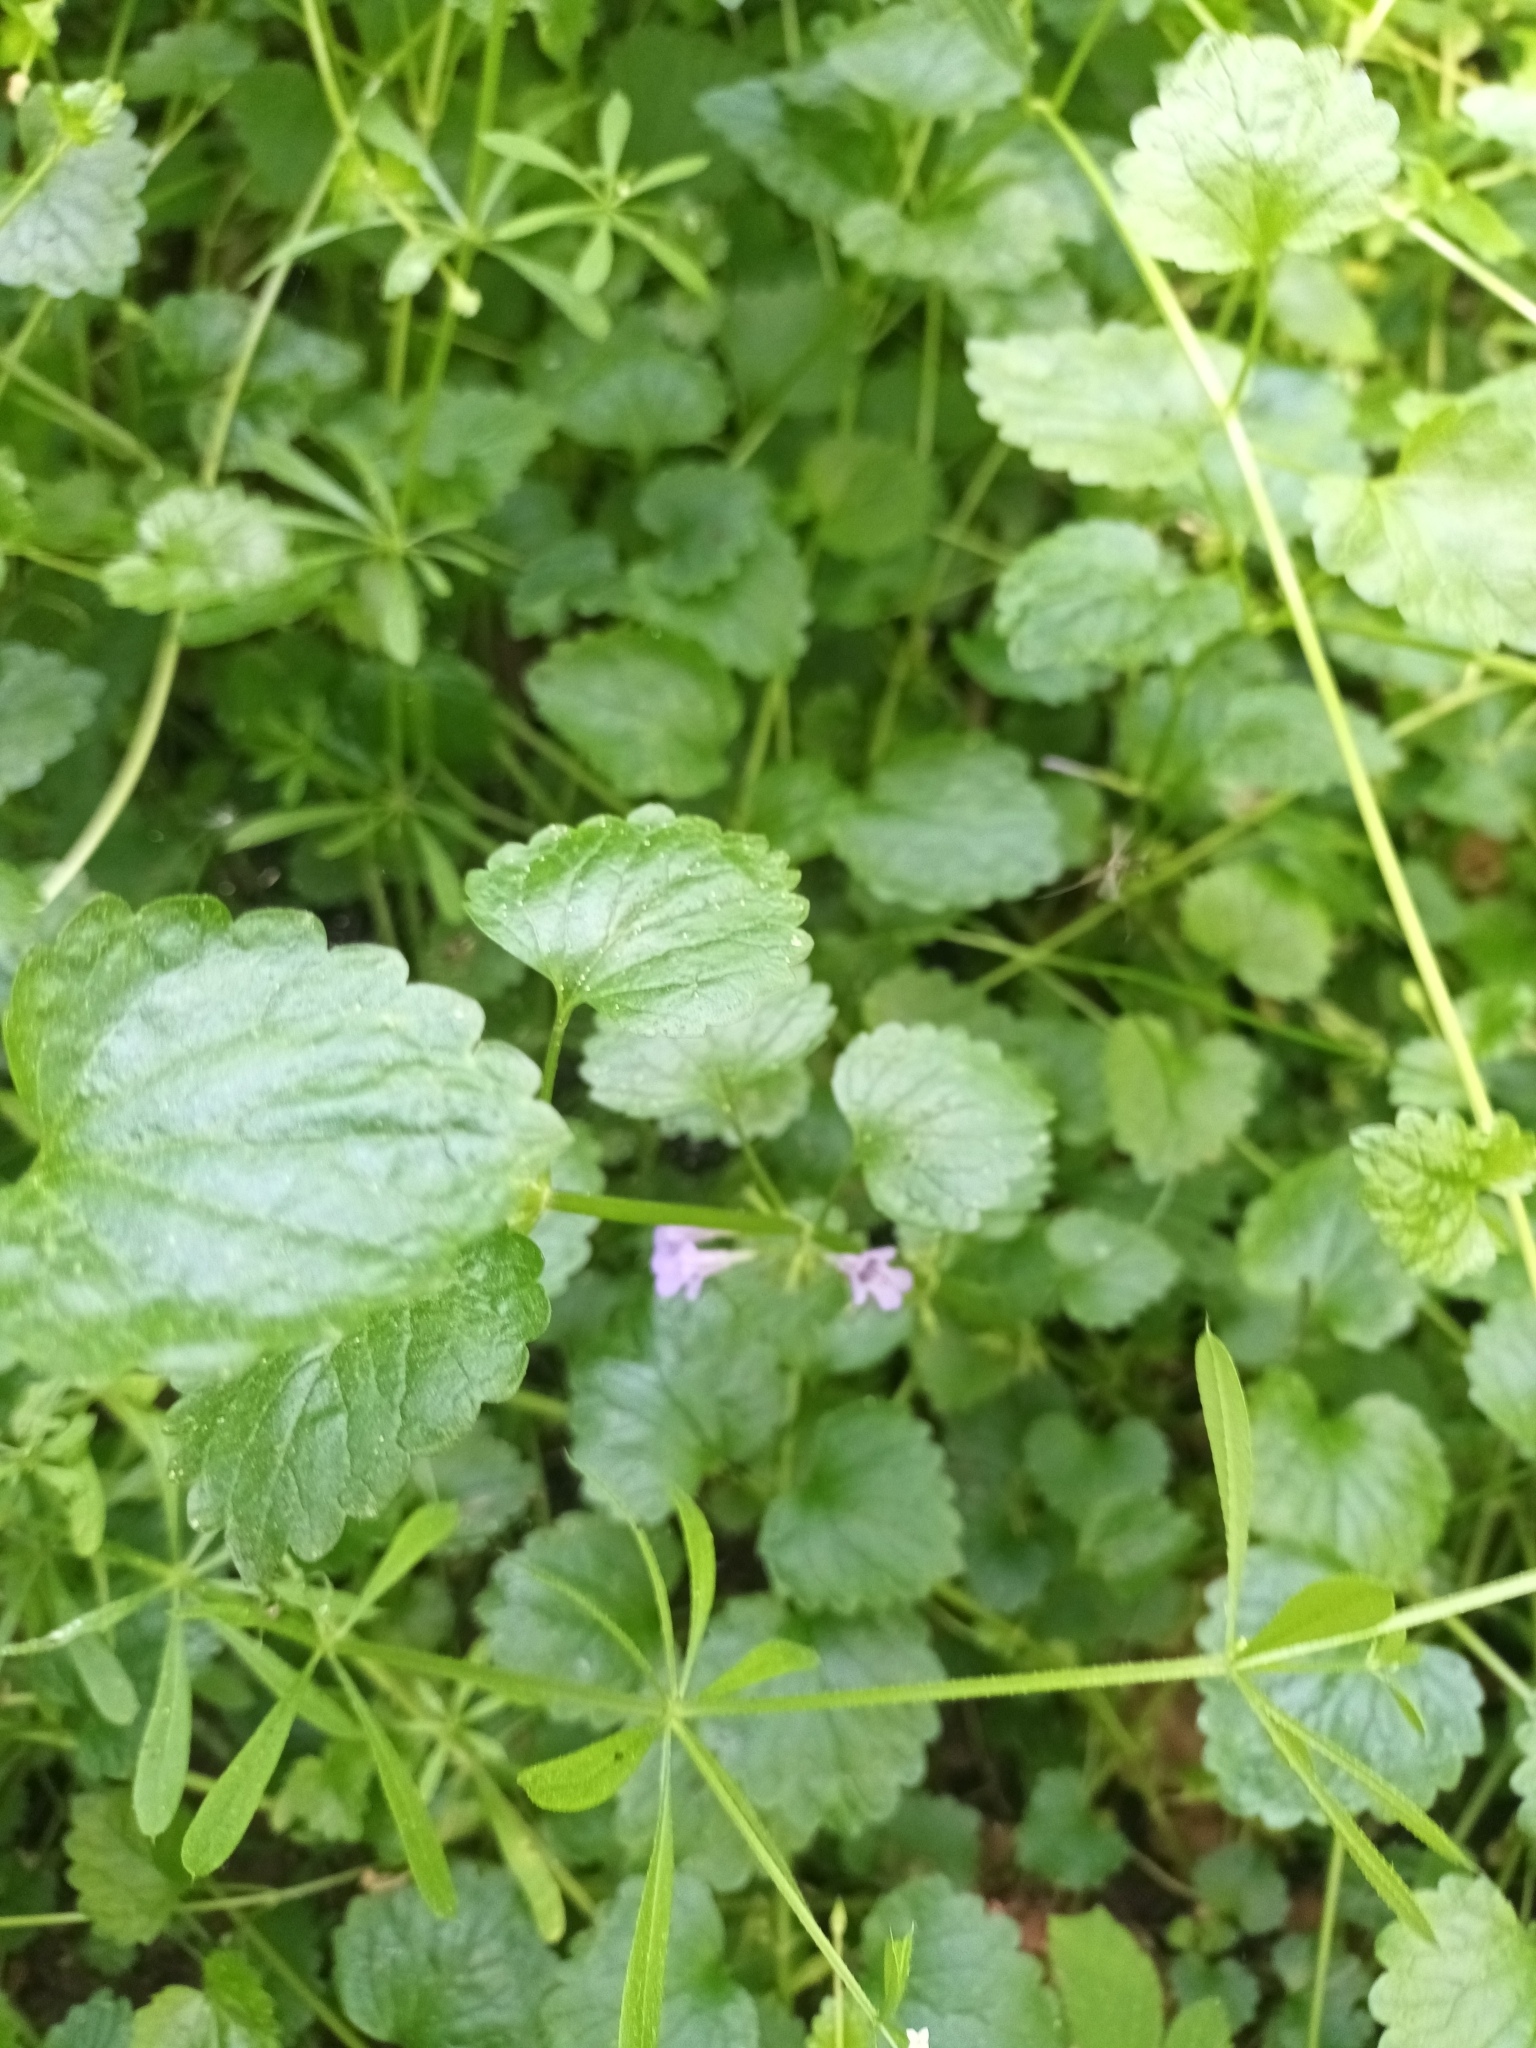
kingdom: Plantae
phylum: Tracheophyta
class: Magnoliopsida
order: Lamiales
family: Lamiaceae
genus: Glechoma
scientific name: Glechoma hederacea
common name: Ground ivy
